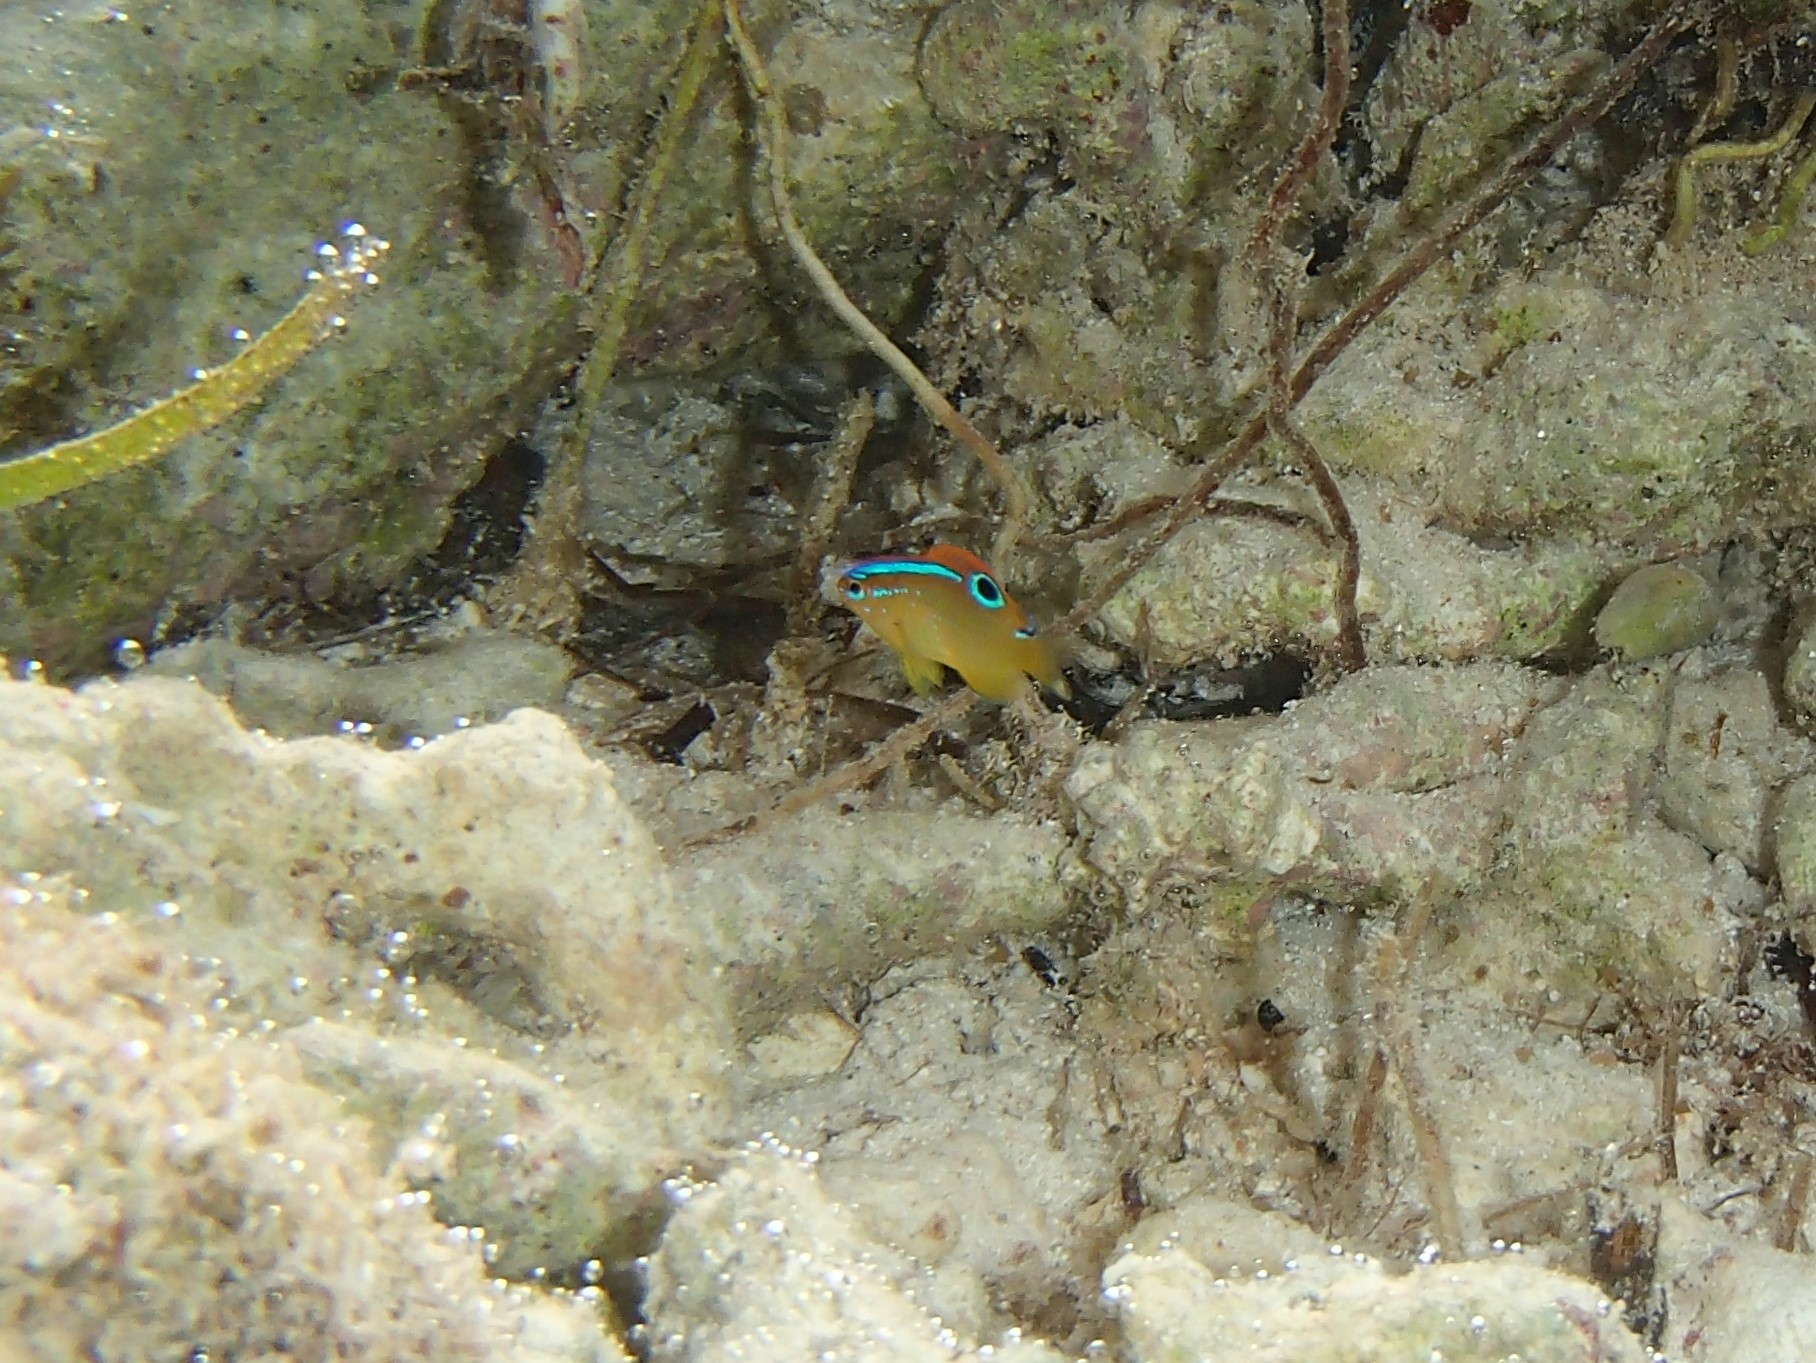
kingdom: Animalia
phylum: Chordata
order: Perciformes
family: Pomacentridae
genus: Chrysiptera
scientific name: Chrysiptera unimaculata
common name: Onespot demoiselle
